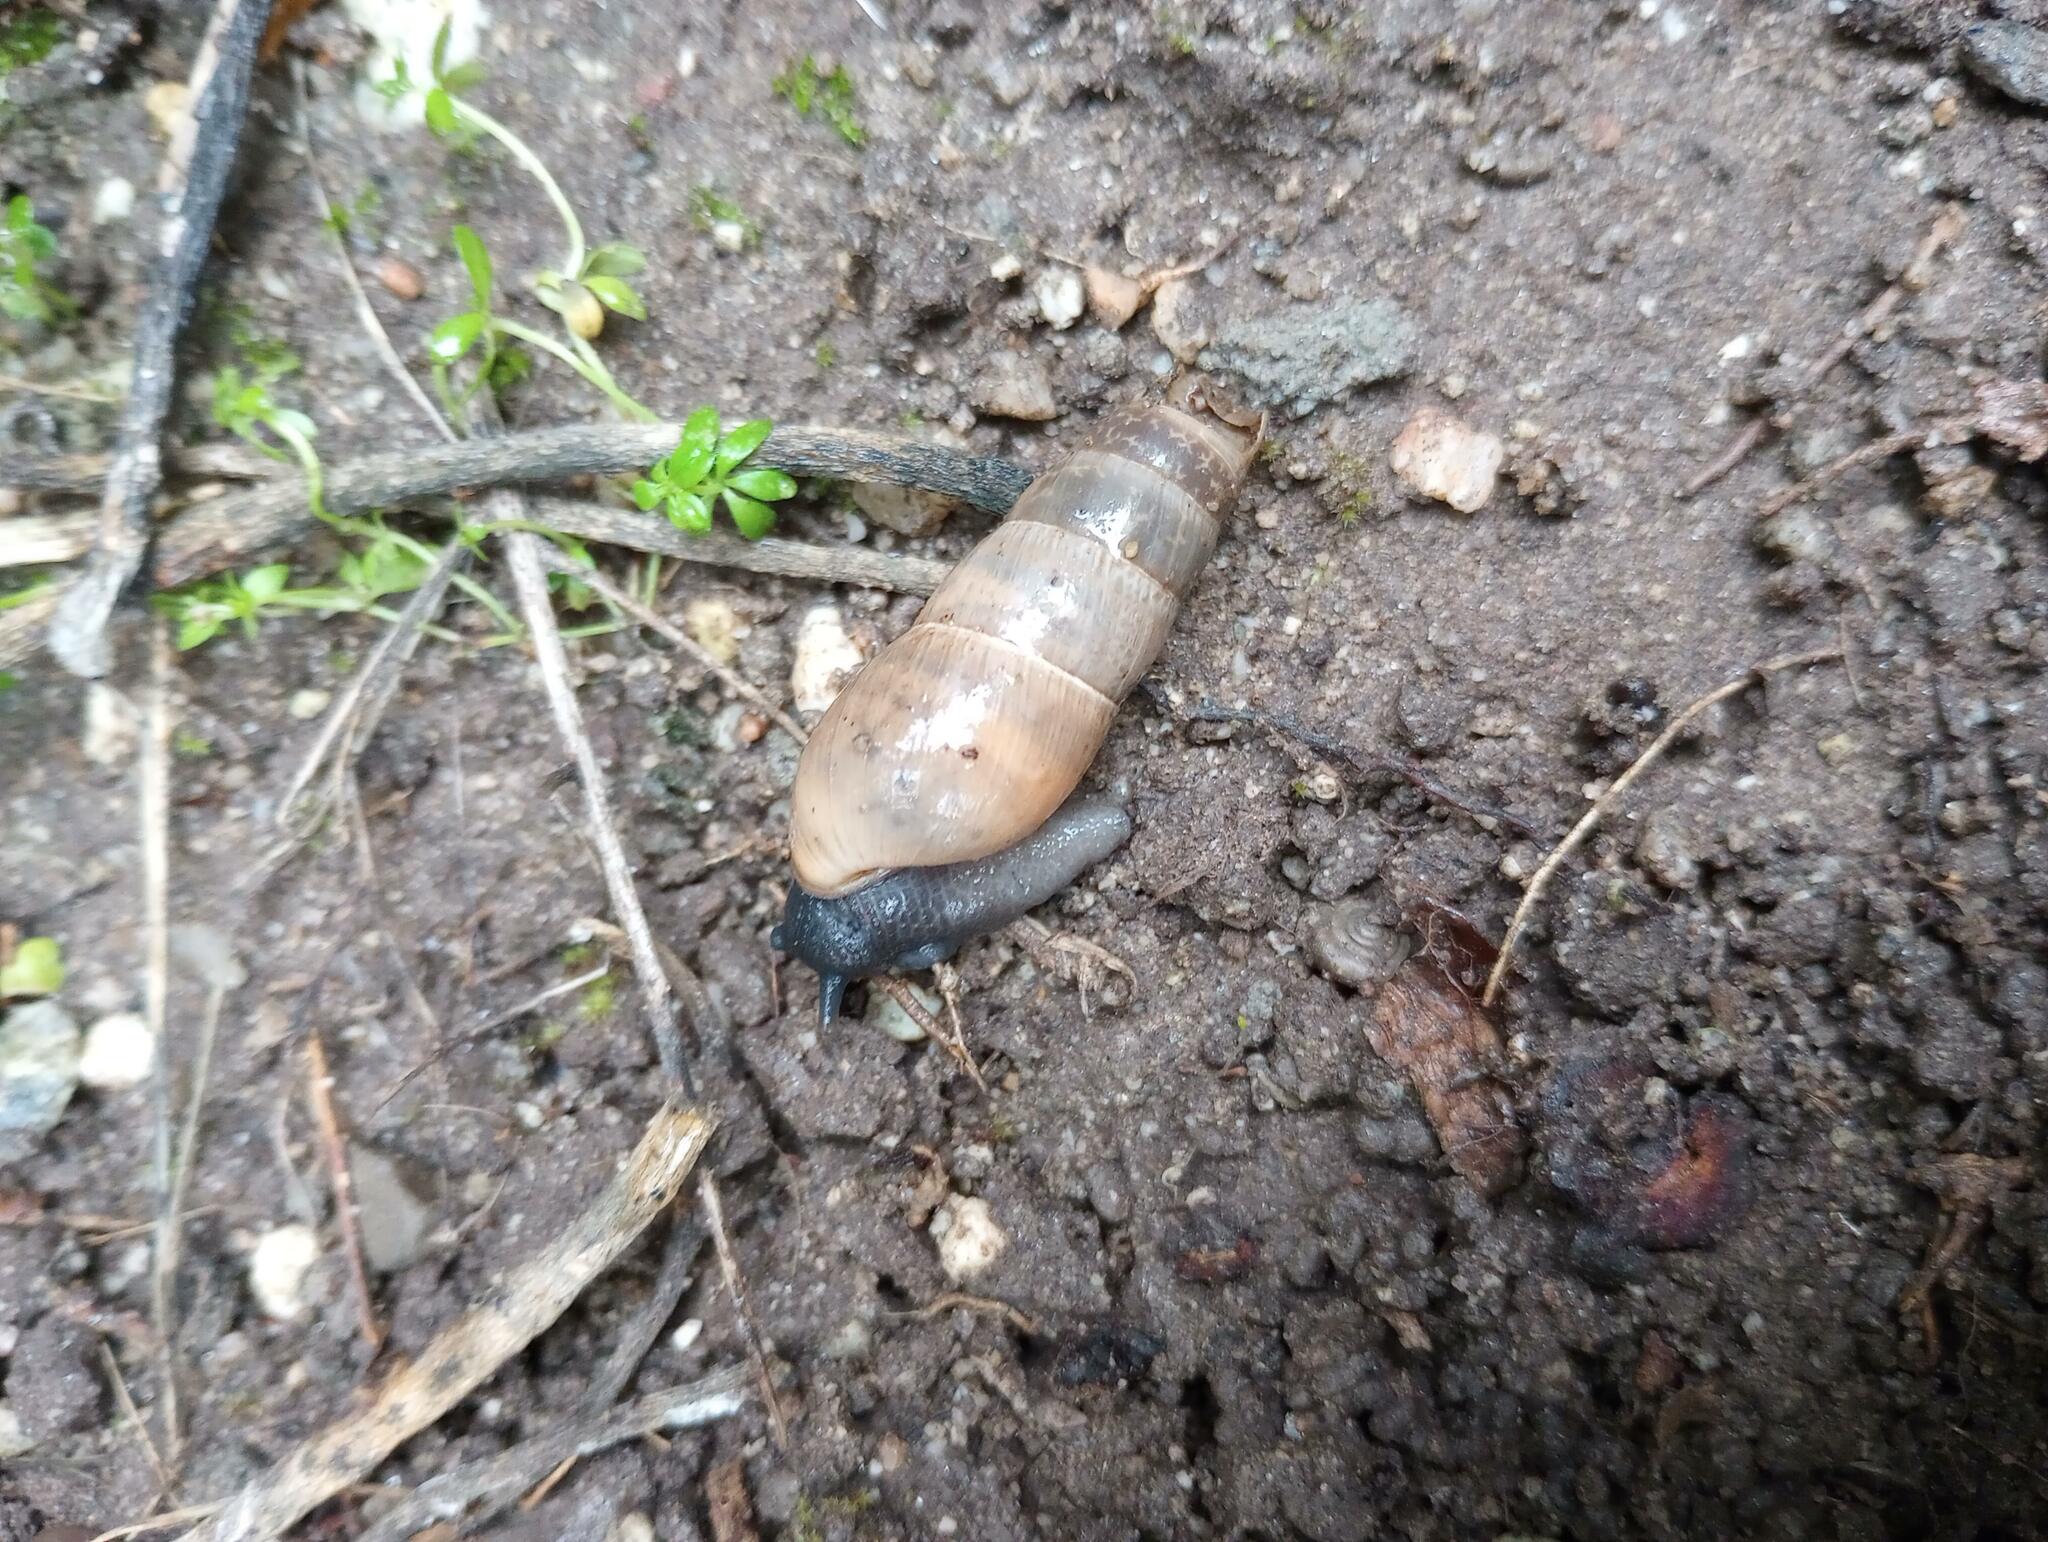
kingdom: Animalia
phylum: Mollusca
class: Gastropoda
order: Stylommatophora
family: Achatinidae
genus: Rumina
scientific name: Rumina decollata
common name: Decollate snail
